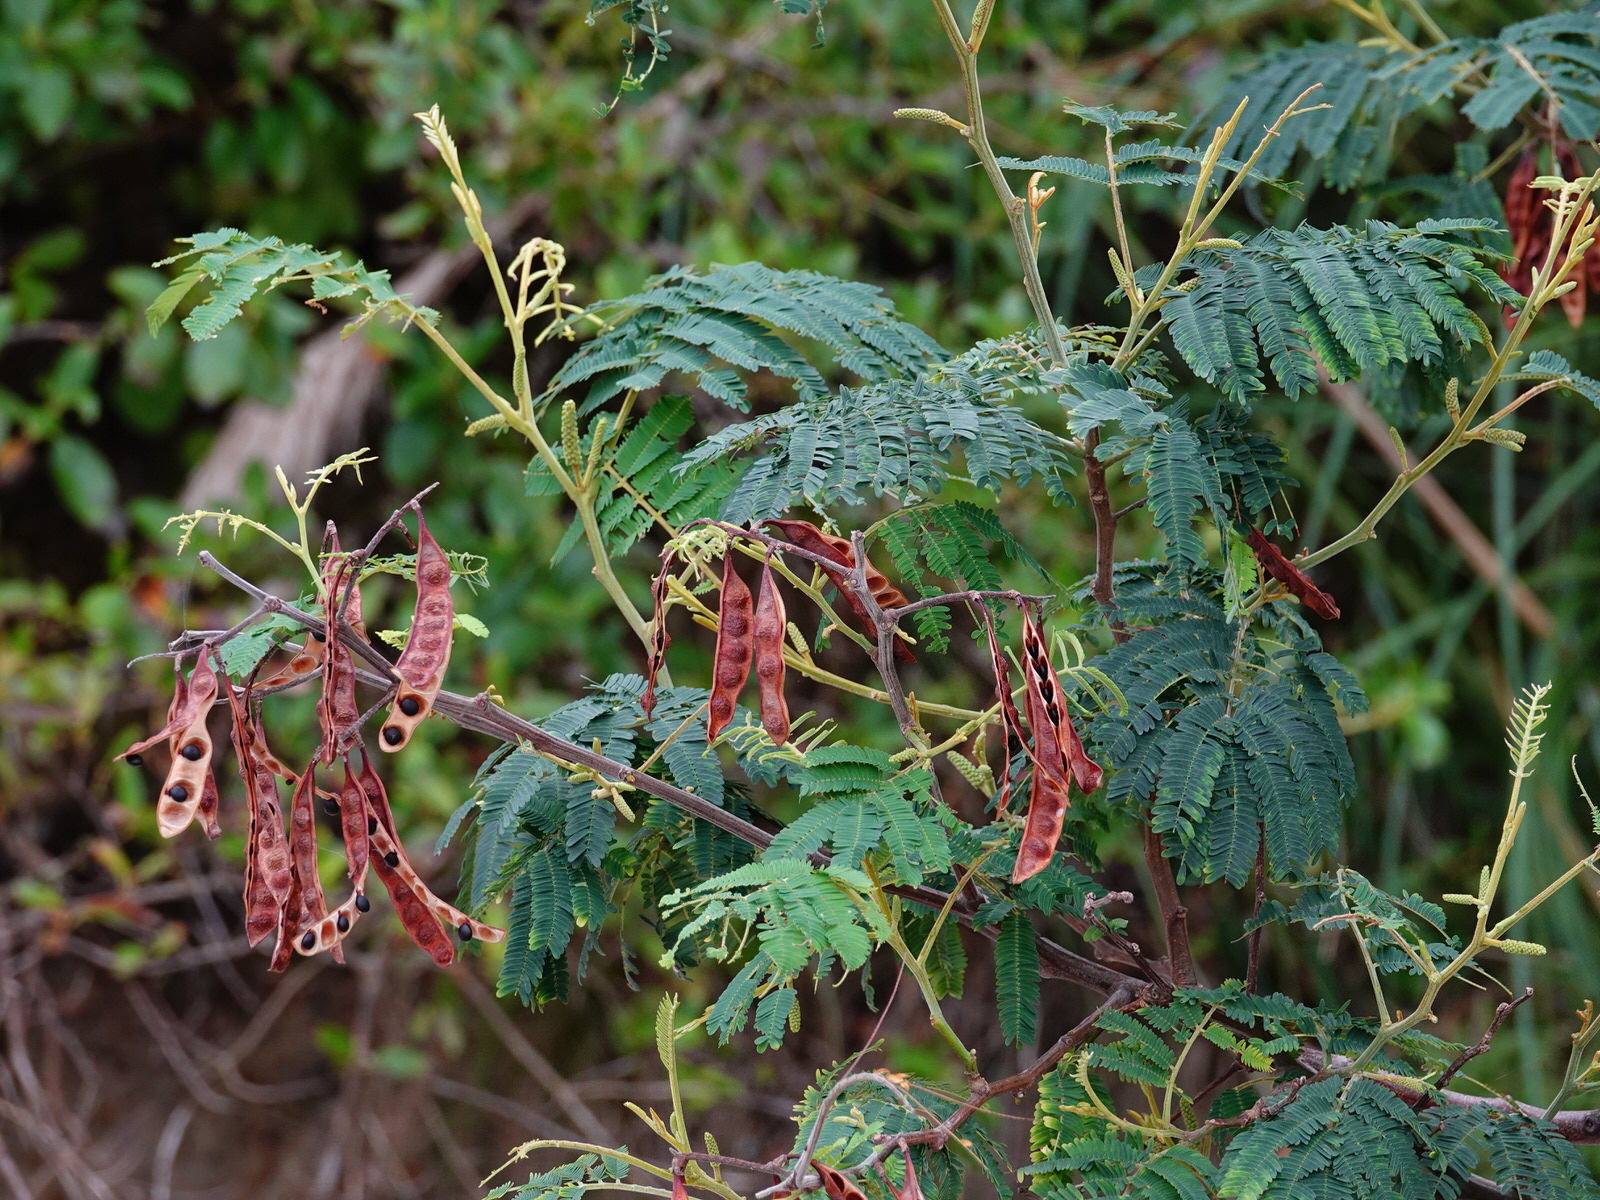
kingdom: Plantae
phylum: Tracheophyta
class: Magnoliopsida
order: Fabales
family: Fabaceae
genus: Paraserianthes
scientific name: Paraserianthes lophantha
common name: Plume albizia
